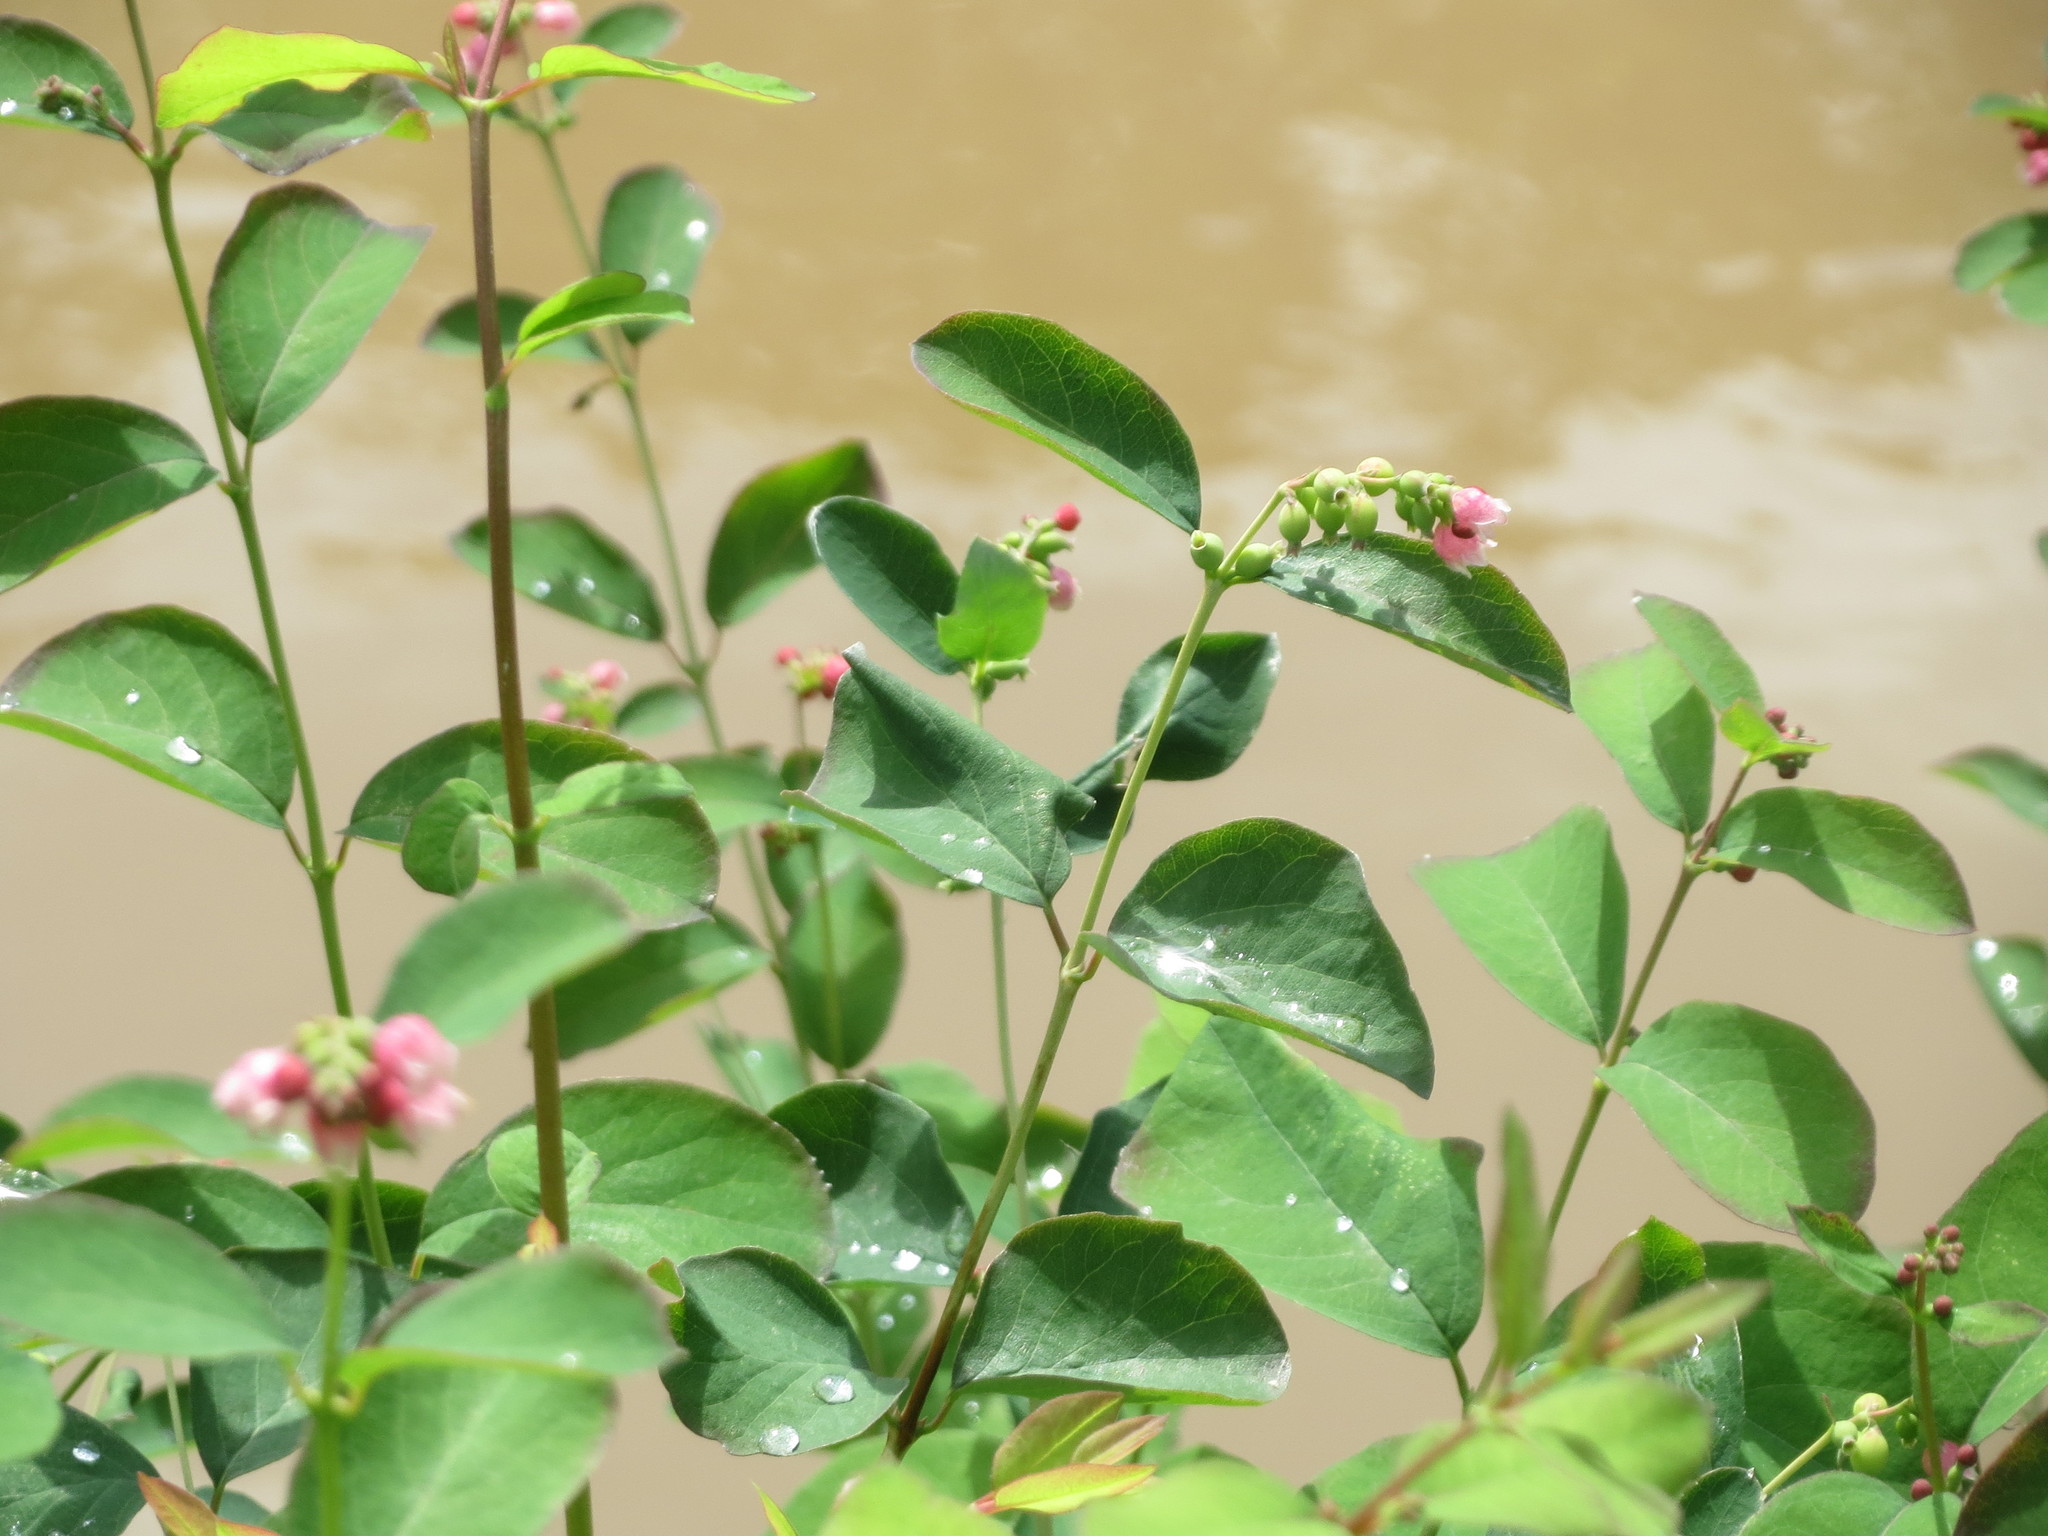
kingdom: Plantae
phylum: Tracheophyta
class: Magnoliopsida
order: Dipsacales
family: Caprifoliaceae
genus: Symphoricarpos
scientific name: Symphoricarpos albus
